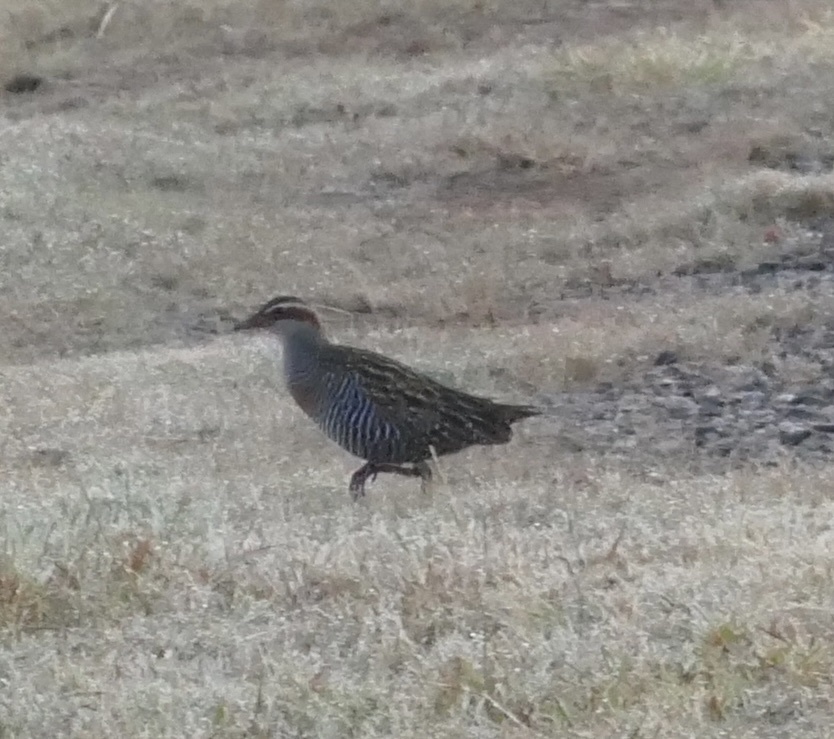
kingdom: Animalia
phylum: Chordata
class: Aves
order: Gruiformes
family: Rallidae
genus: Gallirallus
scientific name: Gallirallus philippensis
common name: Buff-banded rail
